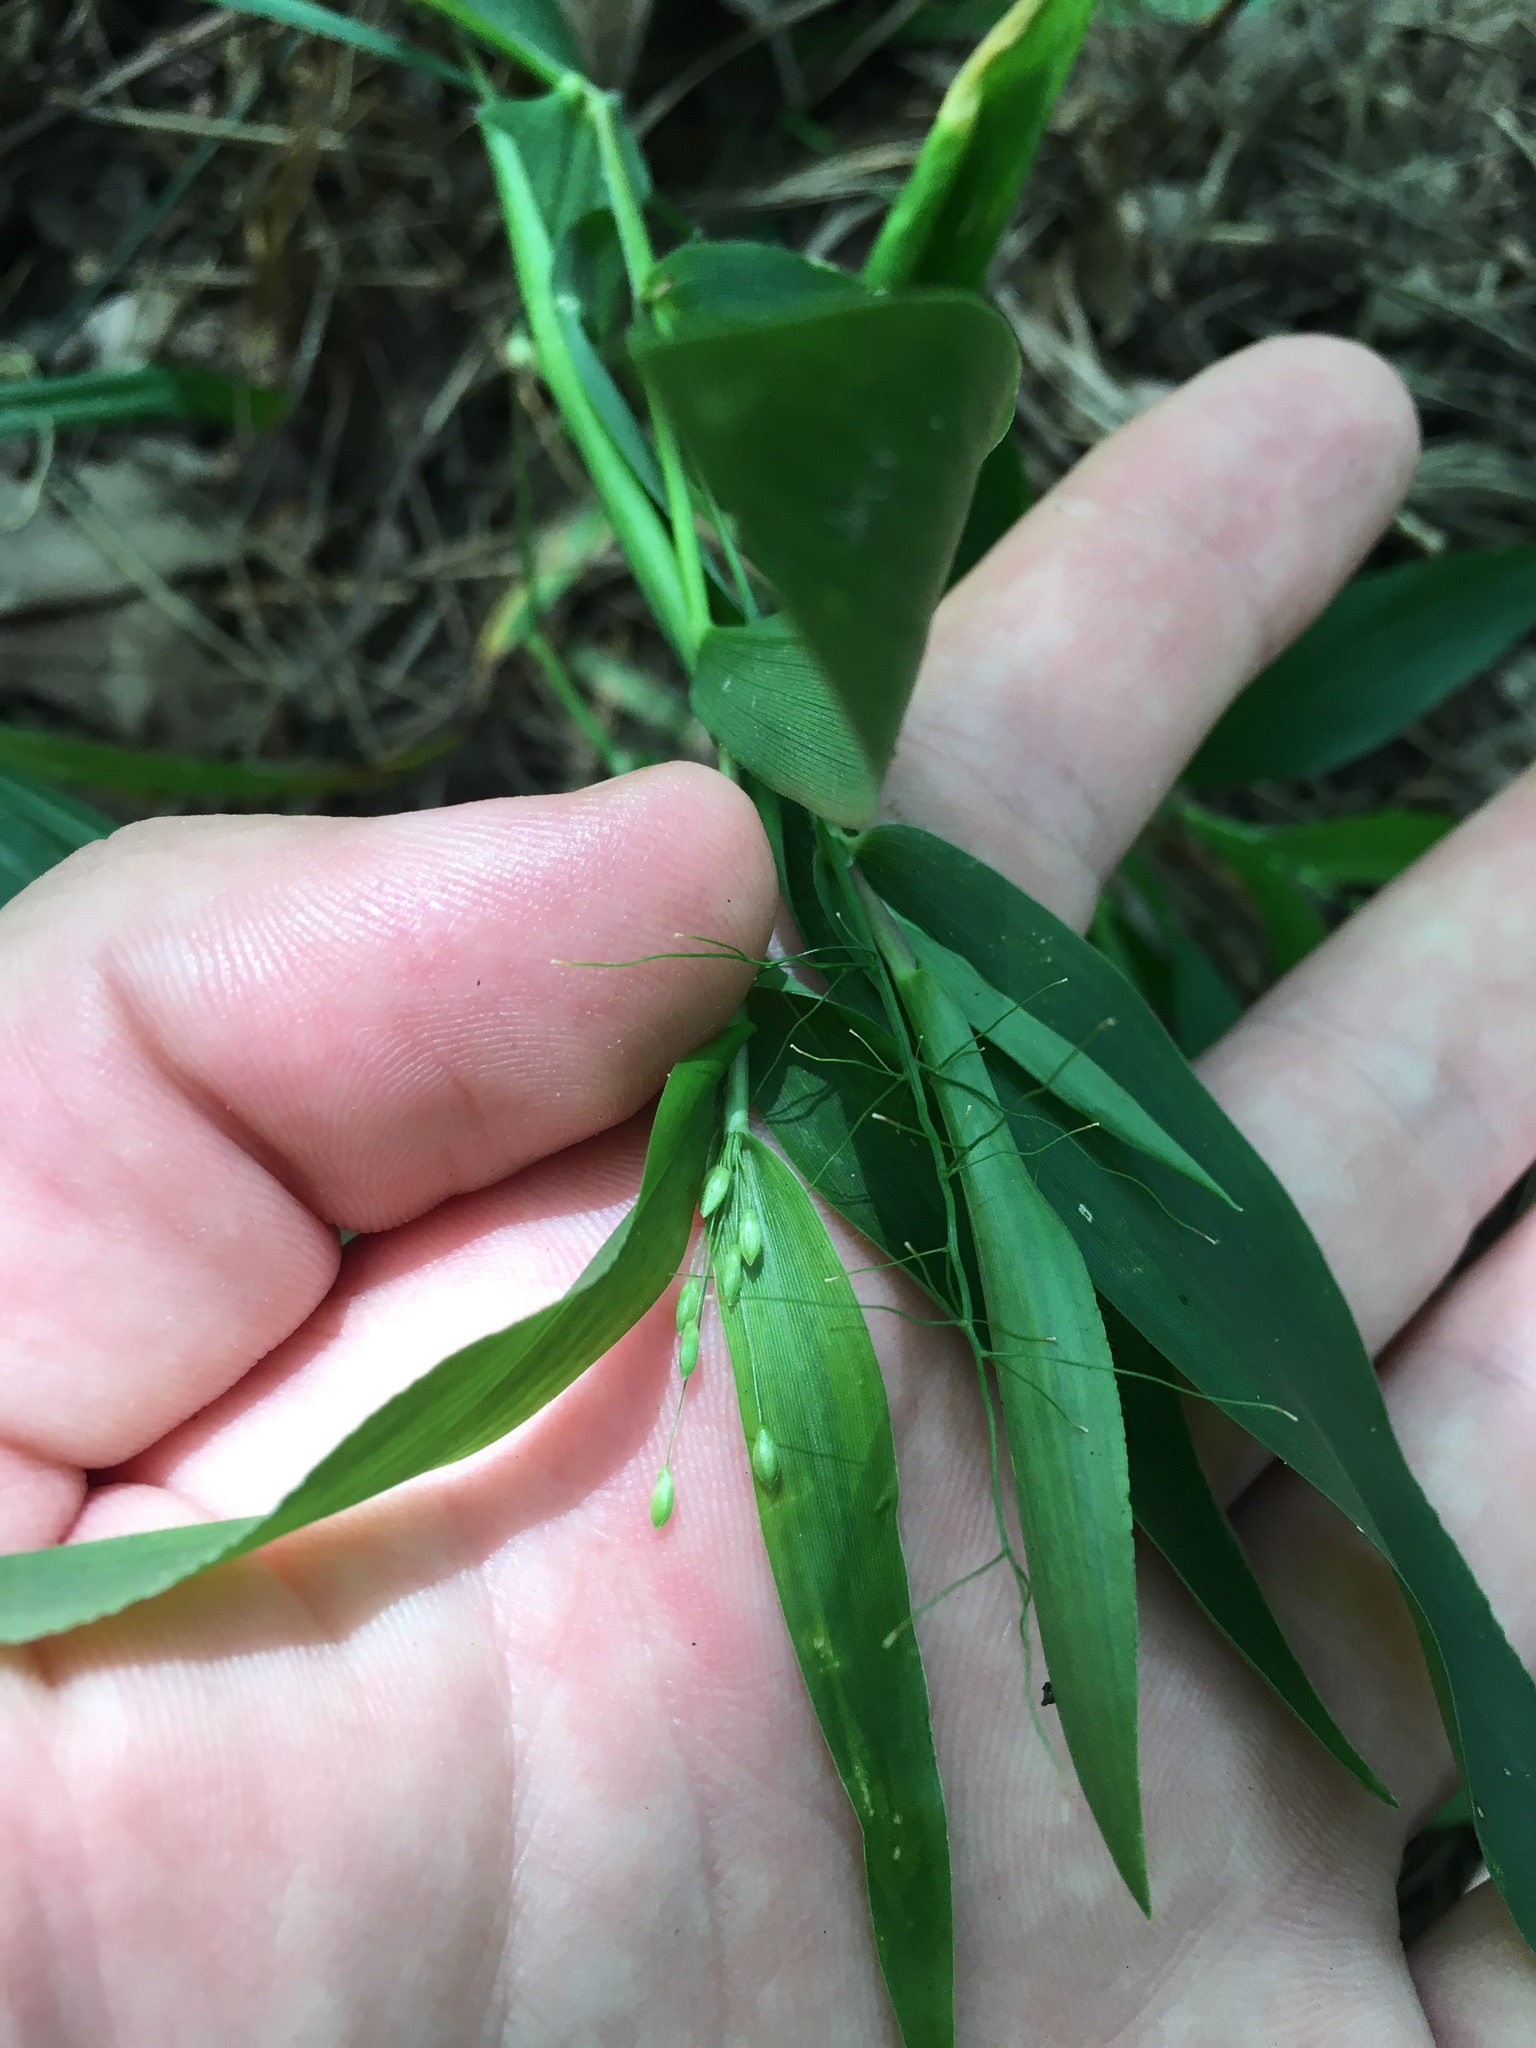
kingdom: Plantae
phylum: Tracheophyta
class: Liliopsida
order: Poales
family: Poaceae
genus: Dichanthelium
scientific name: Dichanthelium commutatum
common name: Variable witchgrass
